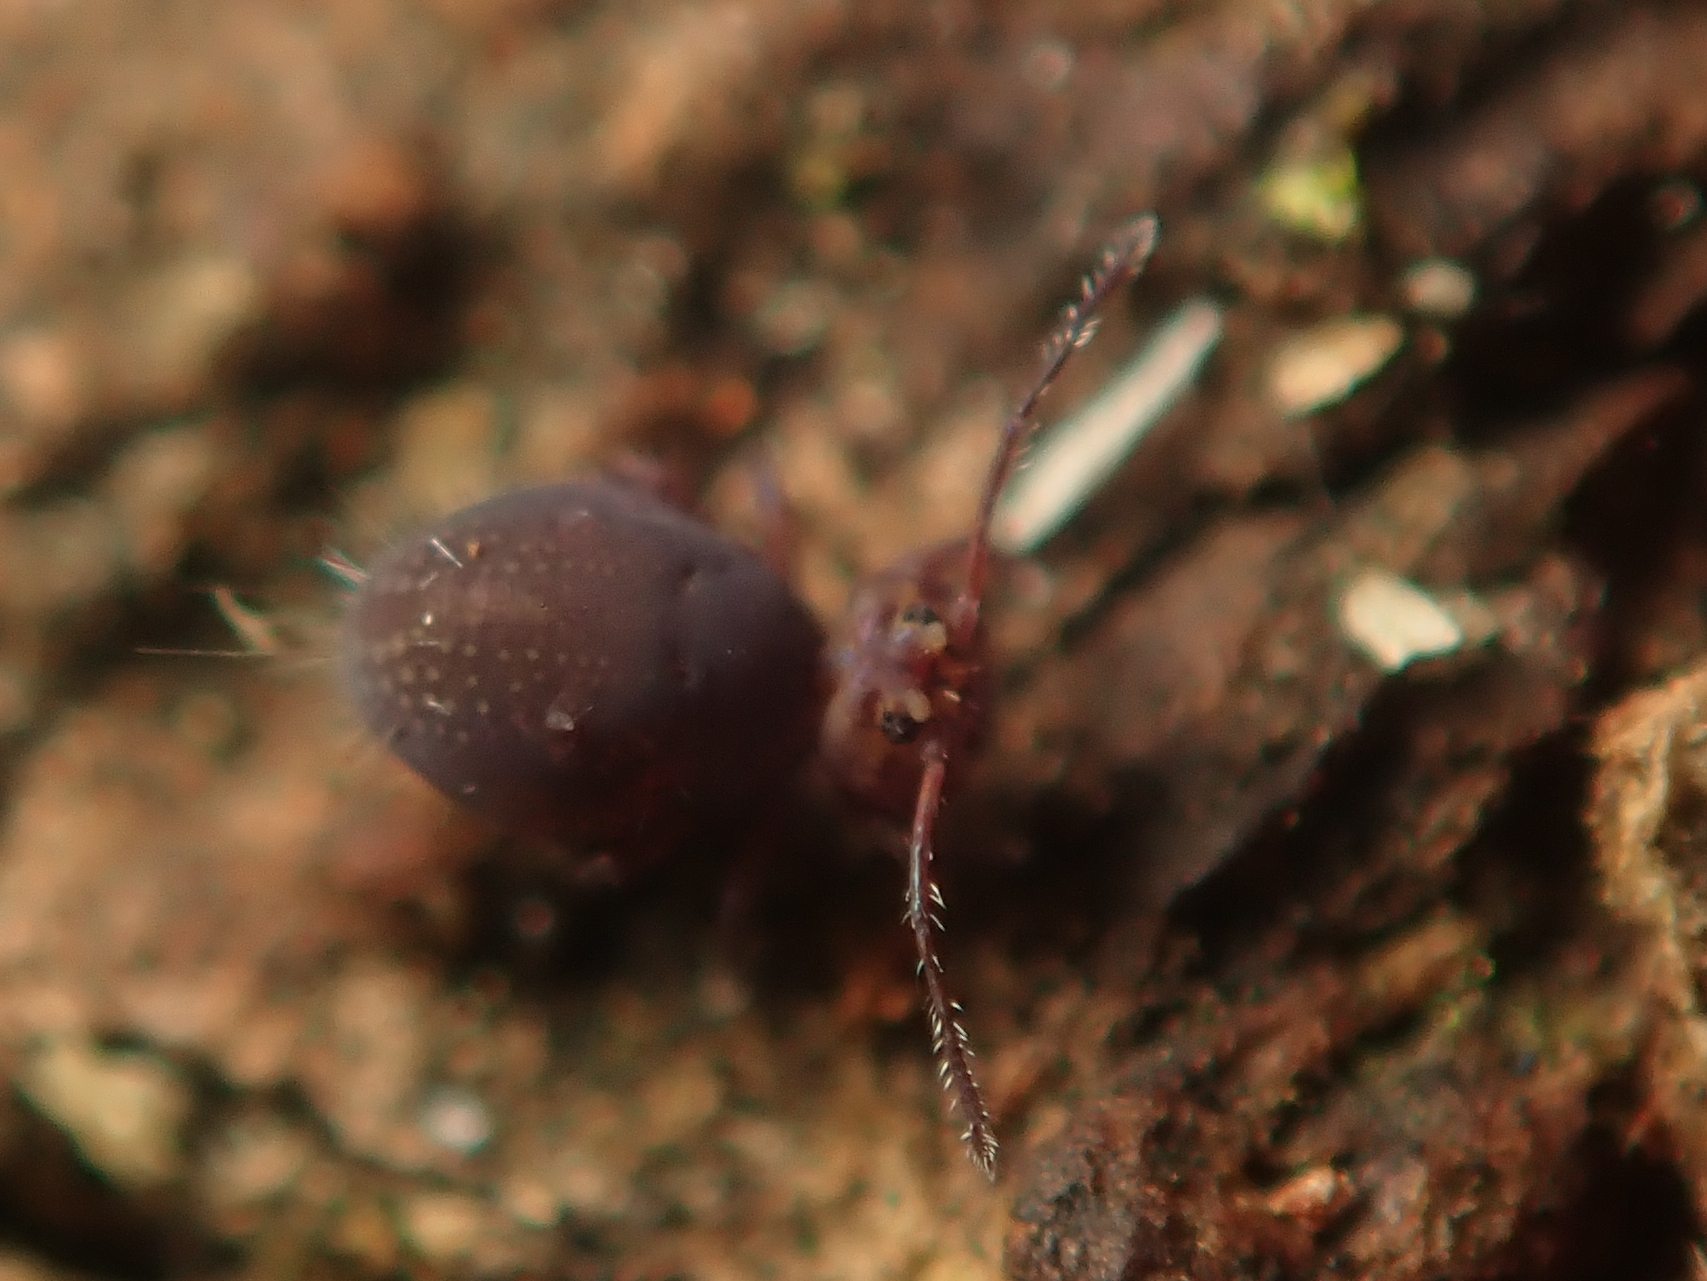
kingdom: Animalia
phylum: Arthropoda
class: Collembola
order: Symphypleona
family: Dicyrtomidae
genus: Dicyrtoma
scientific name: Dicyrtoma fusca
